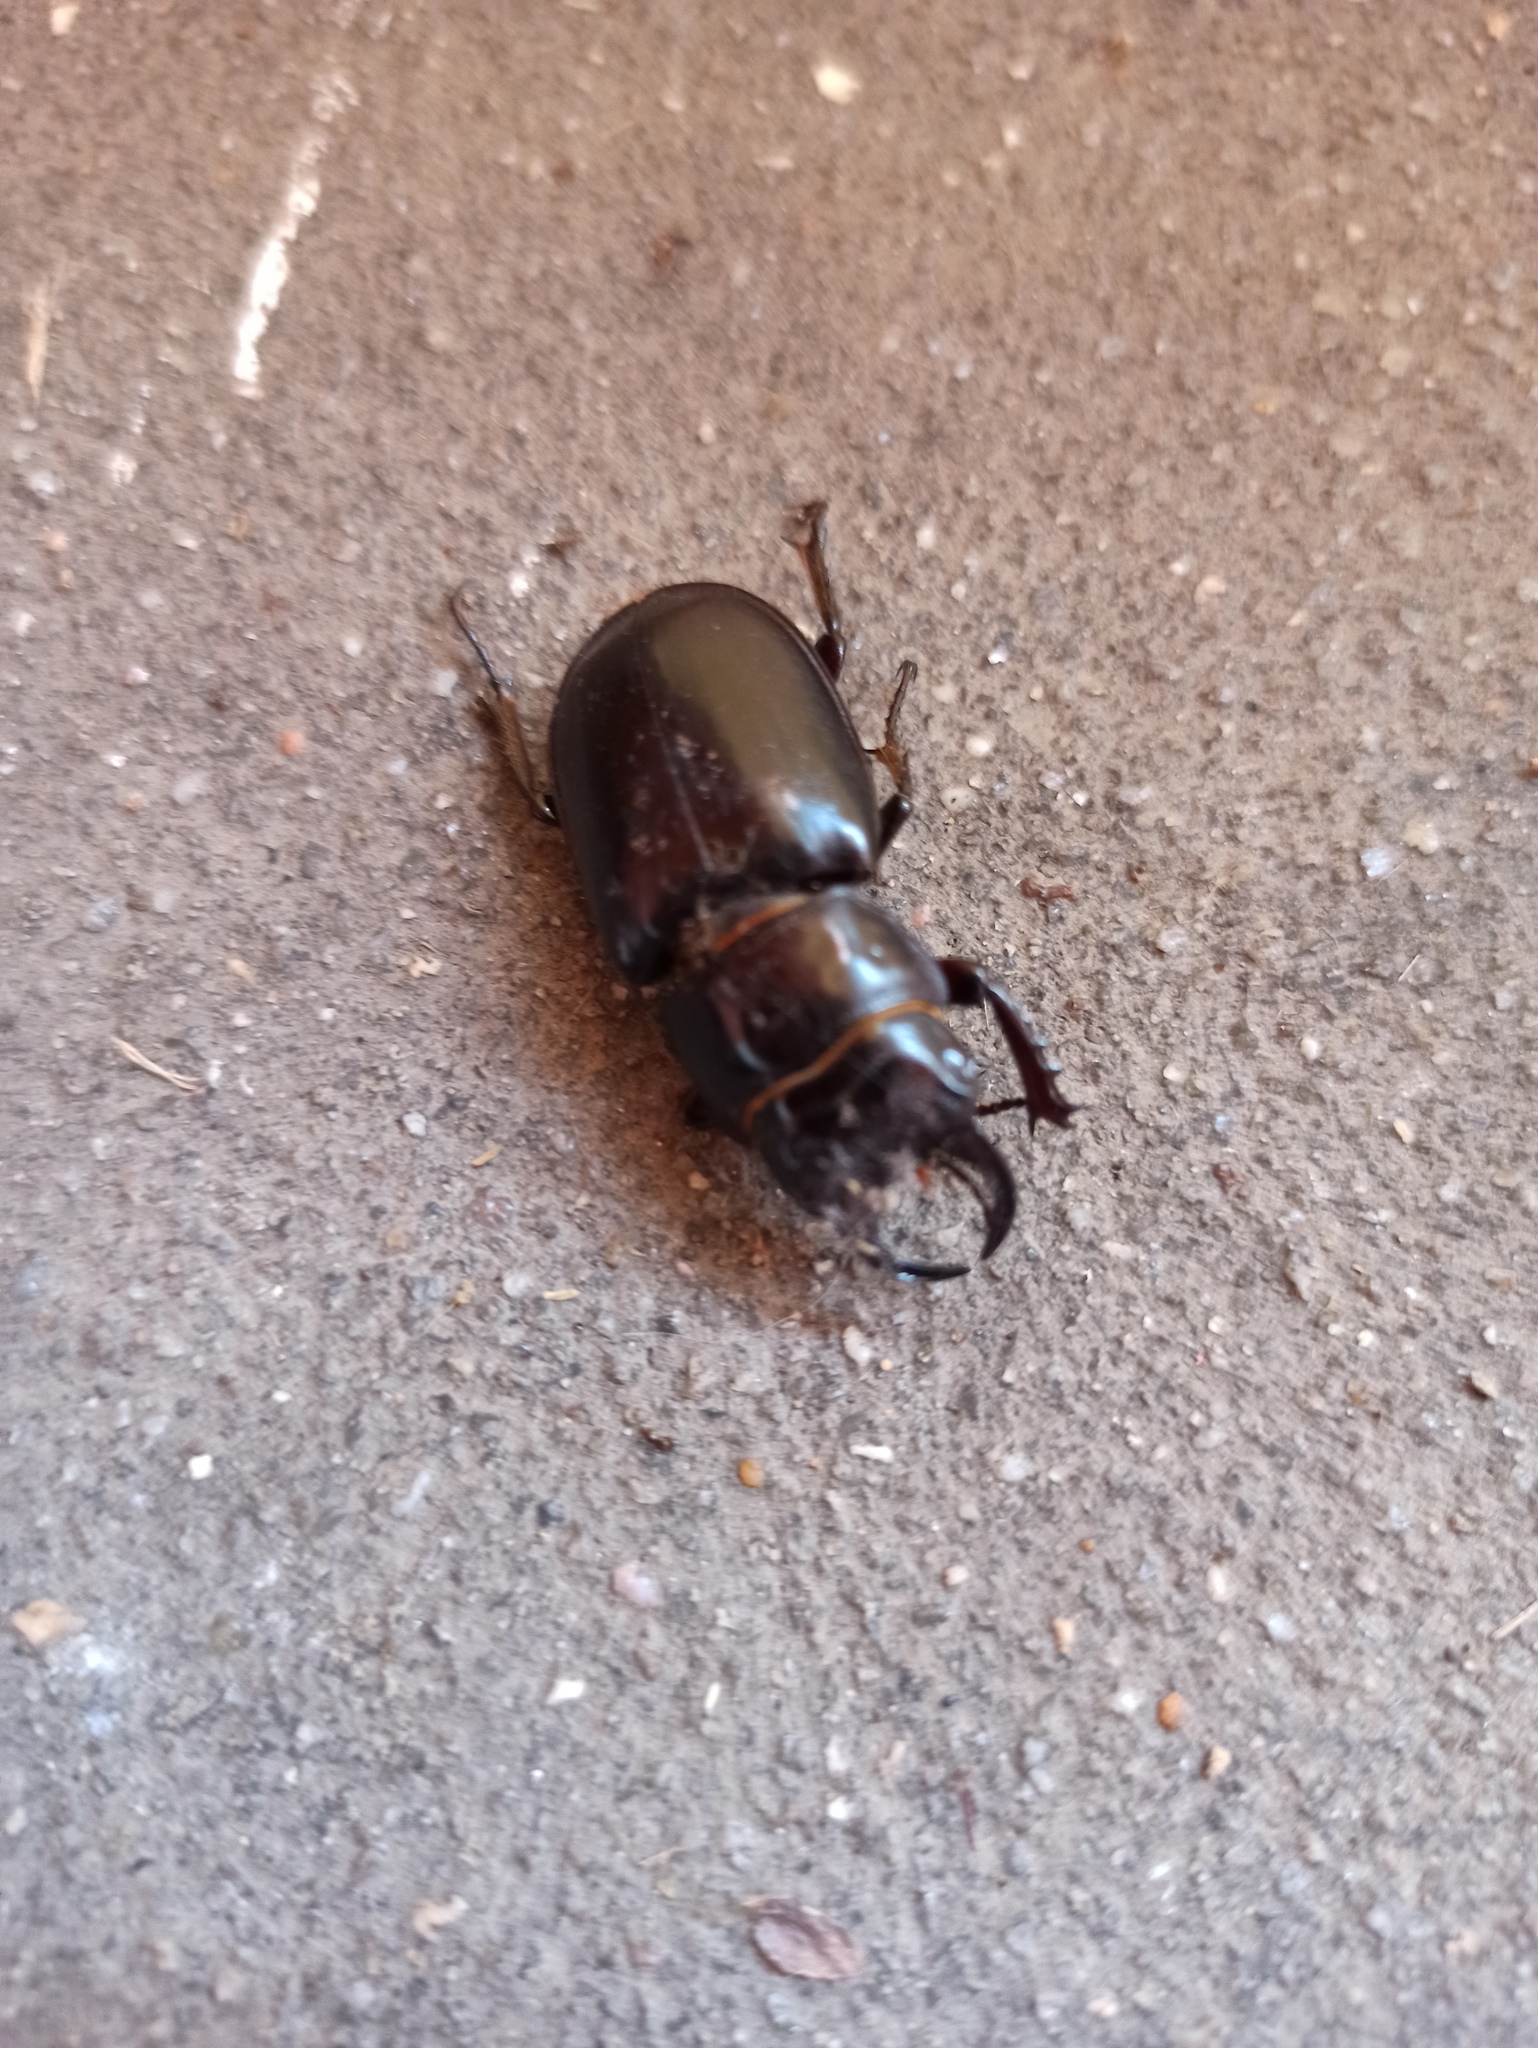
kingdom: Animalia
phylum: Arthropoda
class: Insecta
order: Coleoptera
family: Lucanidae
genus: Lucanus
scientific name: Lucanus barbarossa
